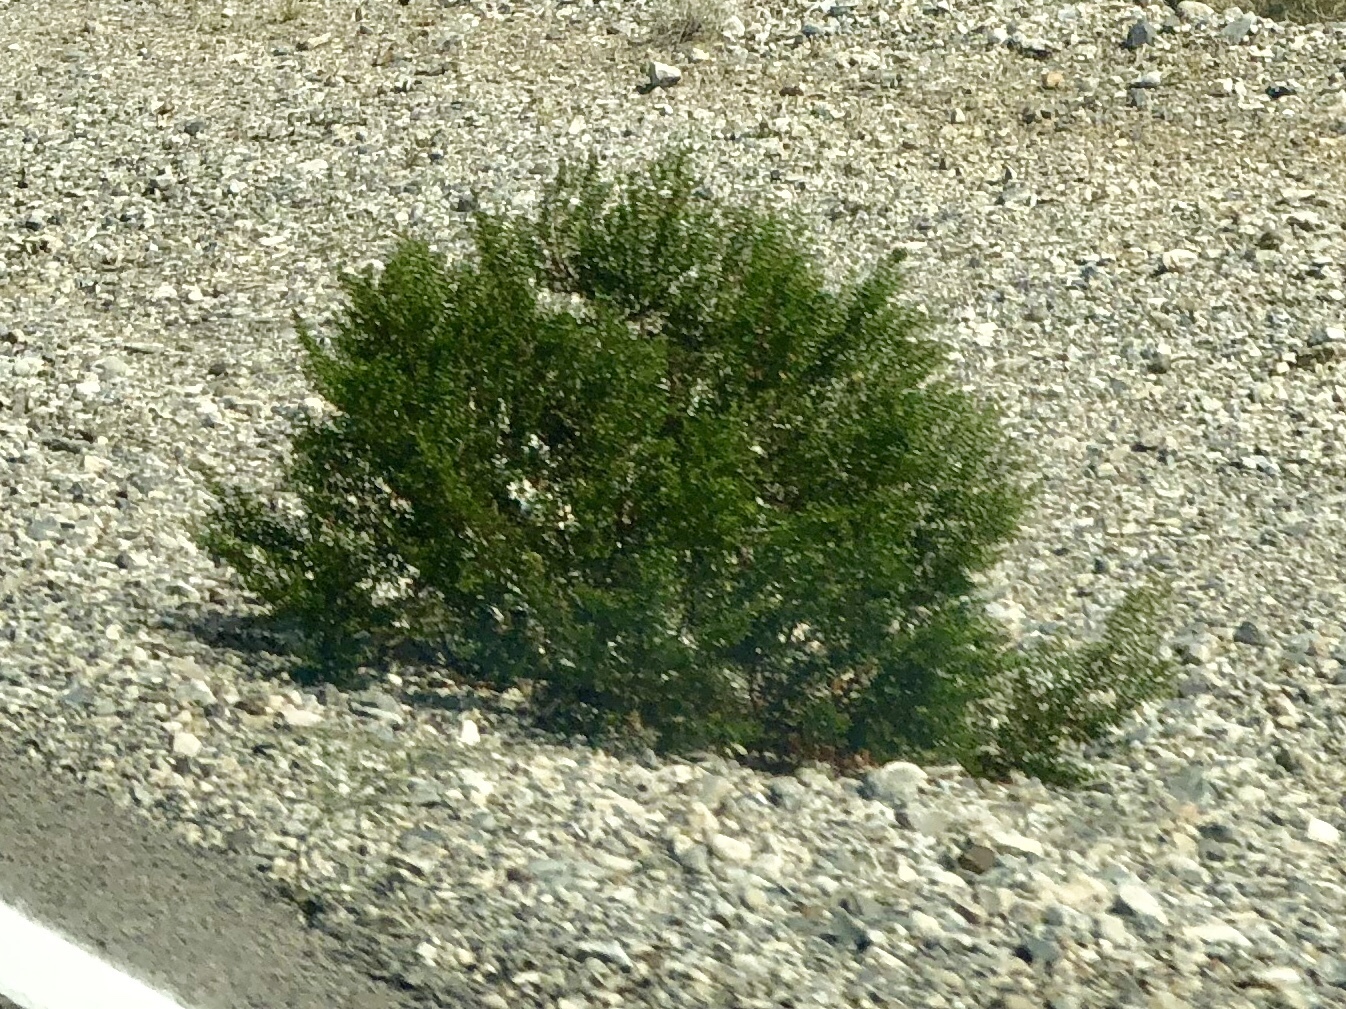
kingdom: Plantae
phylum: Tracheophyta
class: Magnoliopsida
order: Zygophyllales
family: Zygophyllaceae
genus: Larrea
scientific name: Larrea tridentata
